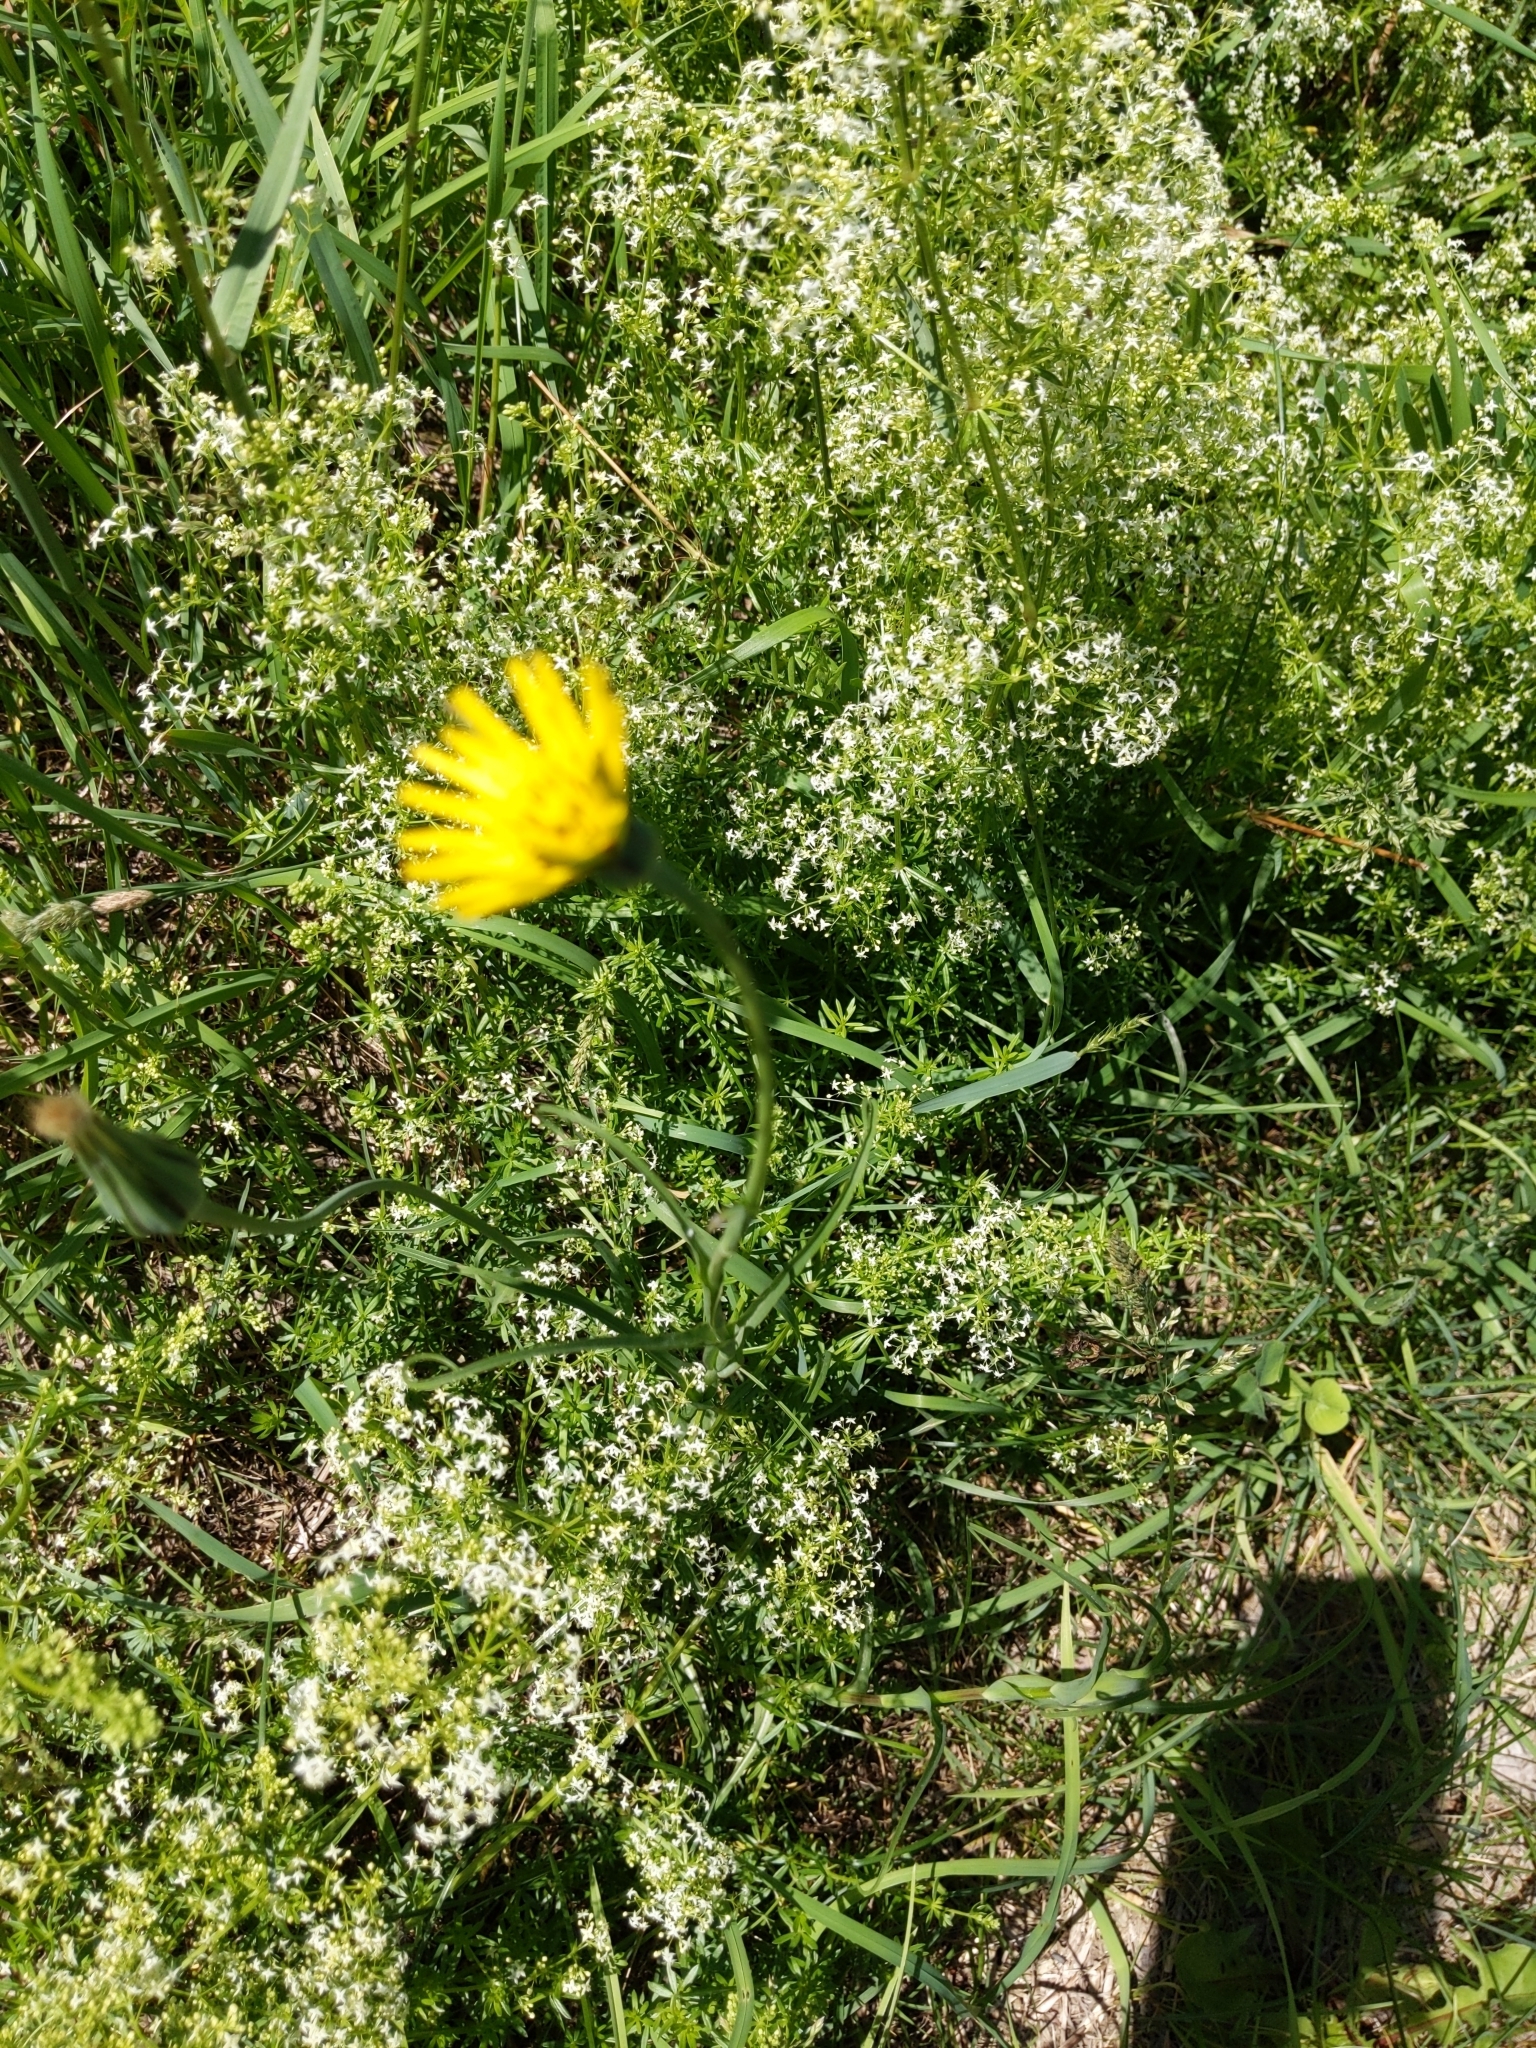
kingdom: Plantae
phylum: Tracheophyta
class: Magnoliopsida
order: Asterales
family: Asteraceae
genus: Tragopogon
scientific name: Tragopogon pratensis
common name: Goat's-beard
